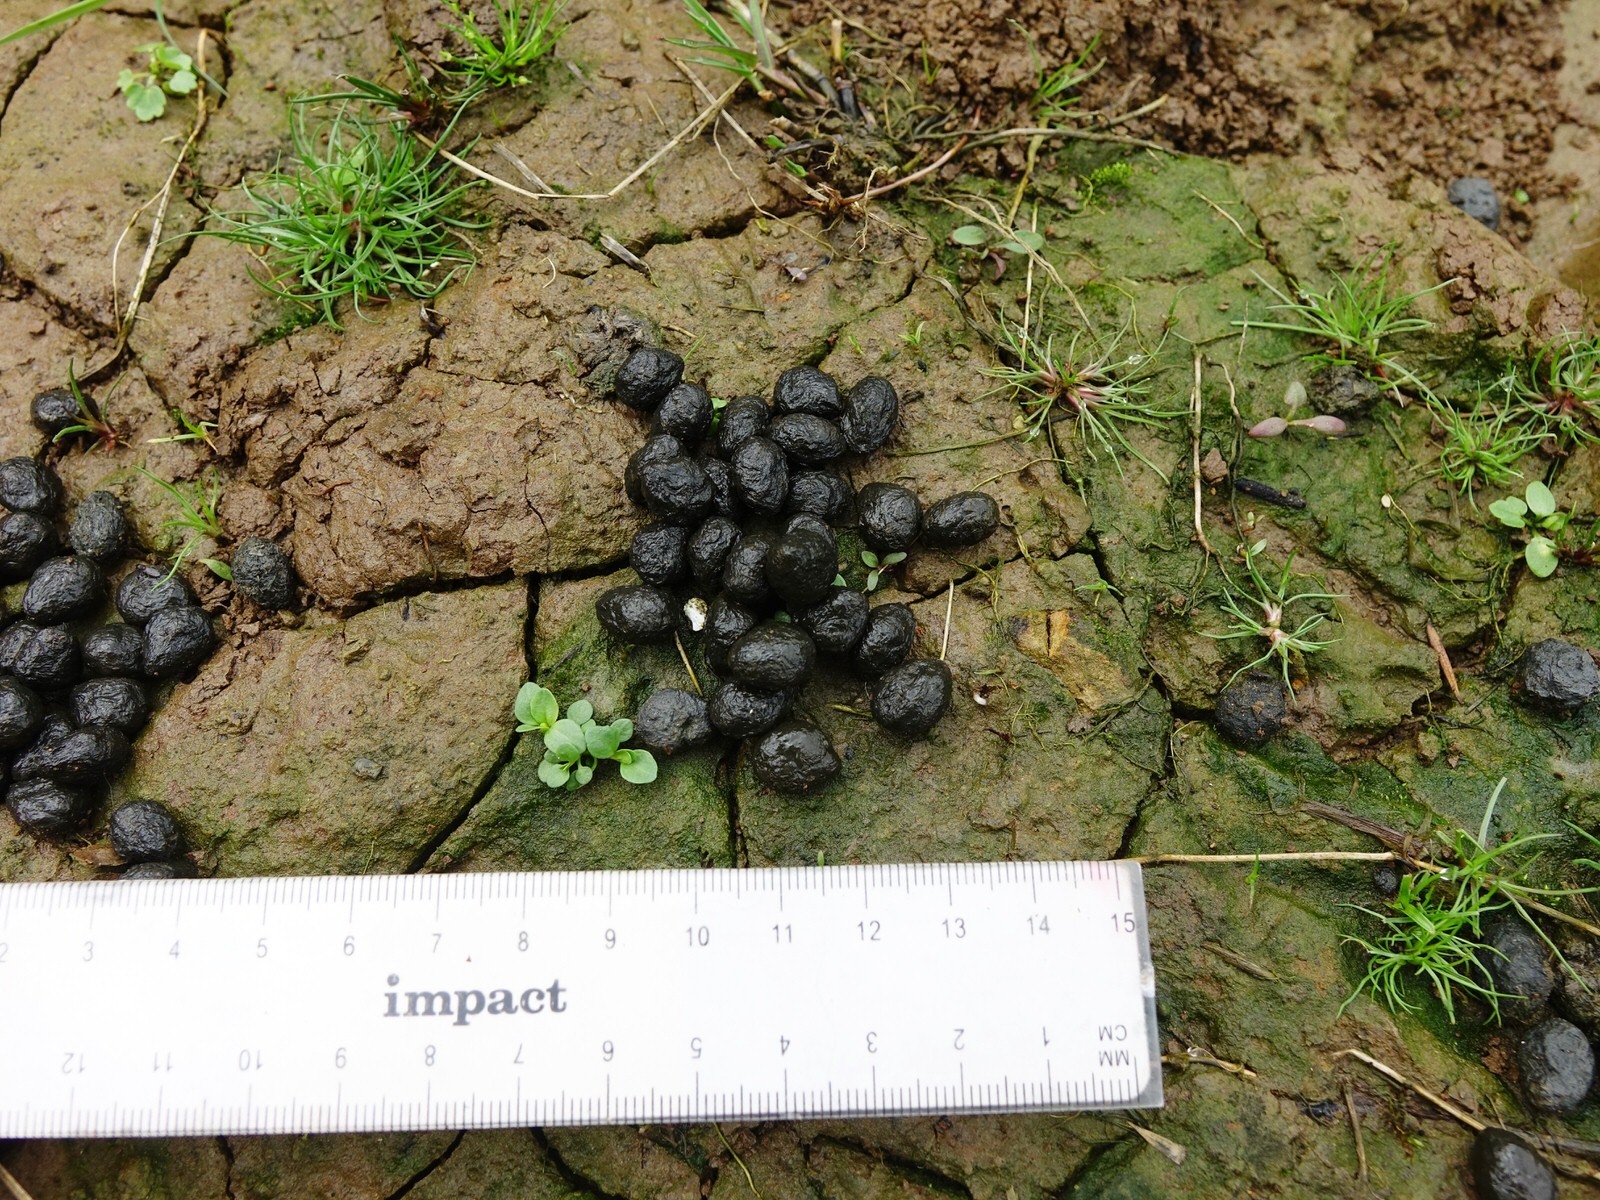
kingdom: Animalia
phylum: Chordata
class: Mammalia
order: Lagomorpha
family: Leporidae
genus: Oryctolagus
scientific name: Oryctolagus cuniculus
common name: European rabbit
